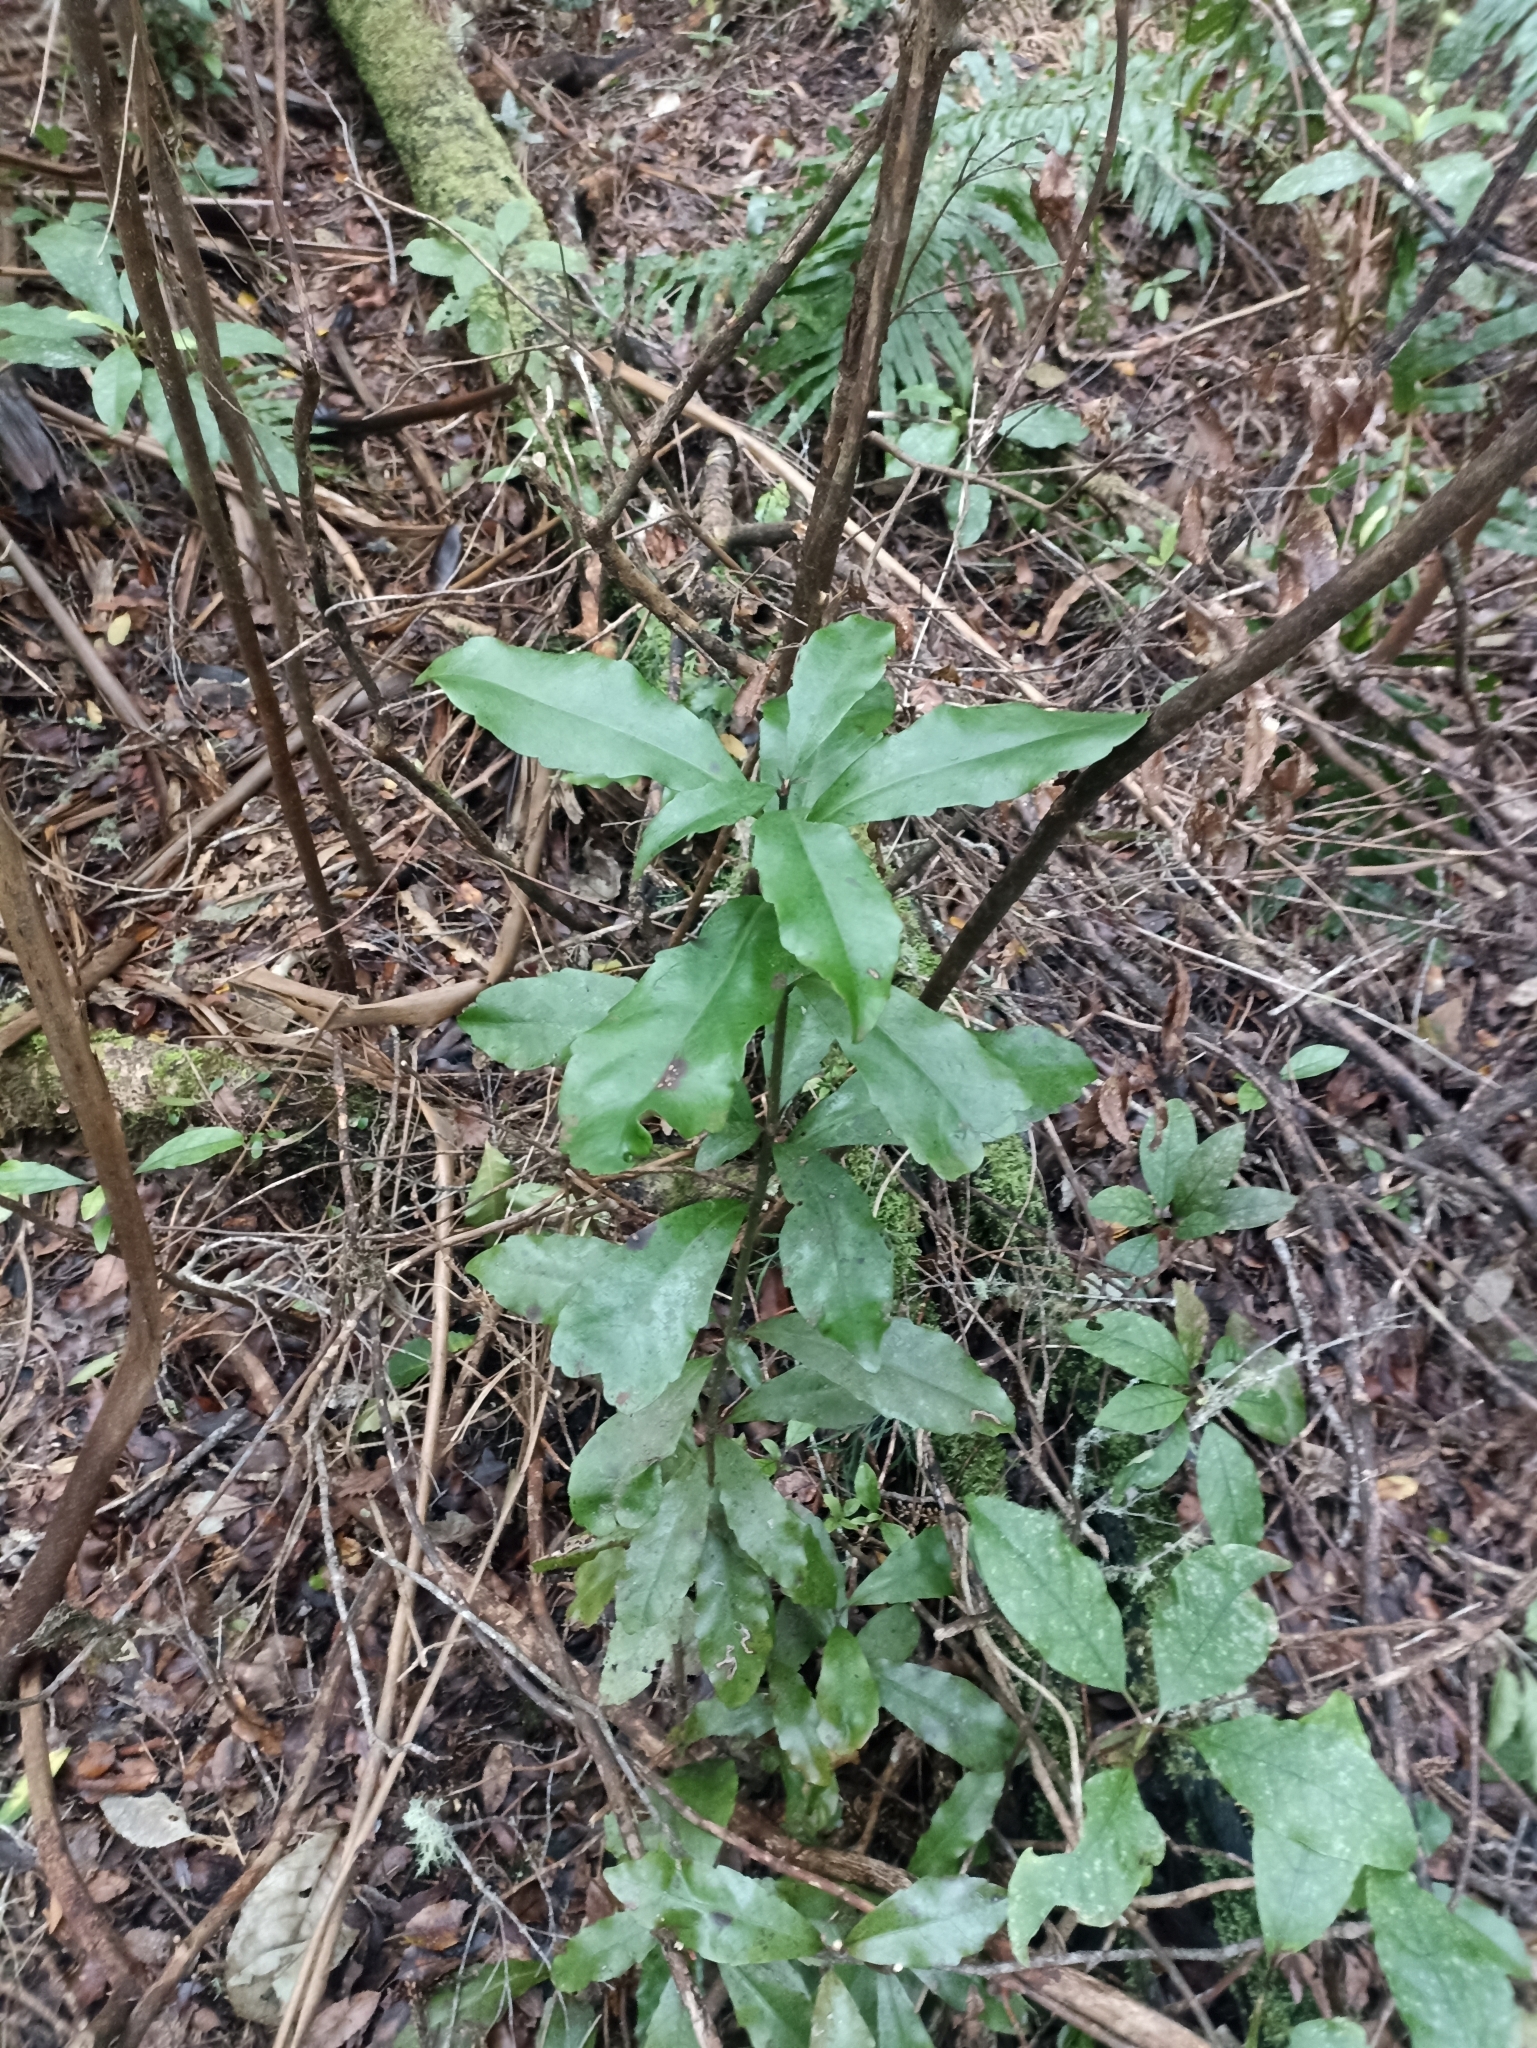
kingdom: Plantae
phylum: Tracheophyta
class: Magnoliopsida
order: Asterales
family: Alseuosmiaceae
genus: Alseuosmia
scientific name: Alseuosmia macrophylla
